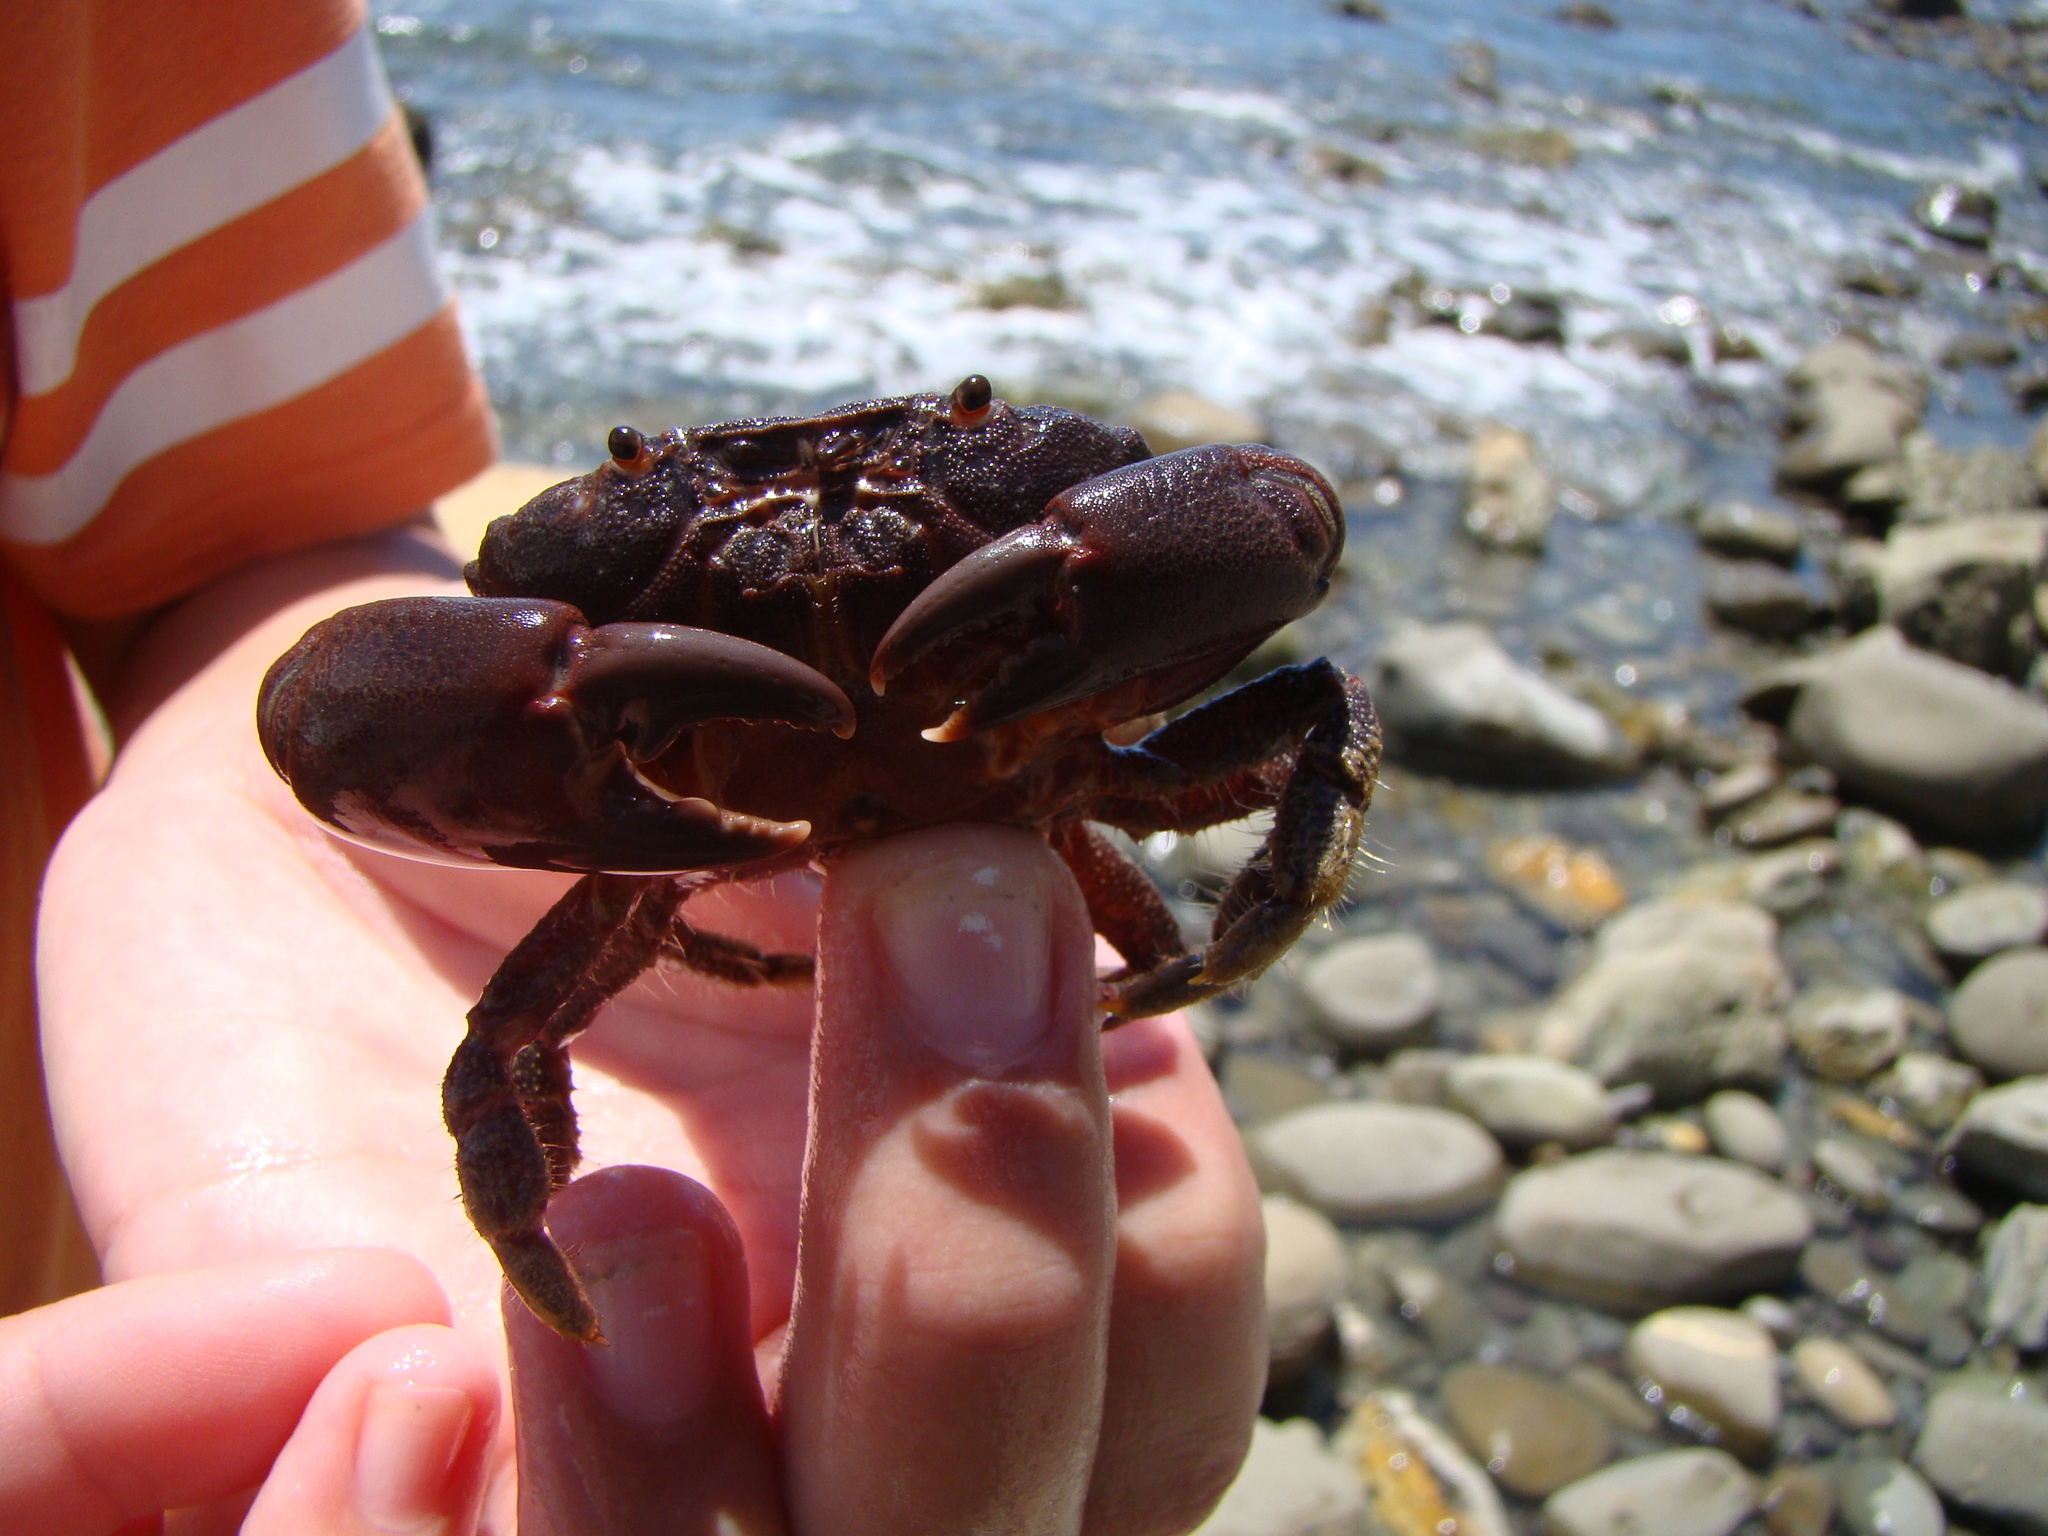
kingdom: Animalia
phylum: Arthropoda
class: Malacostraca
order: Decapoda
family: Oziidae
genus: Ozius
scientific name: Ozius deplanatus
